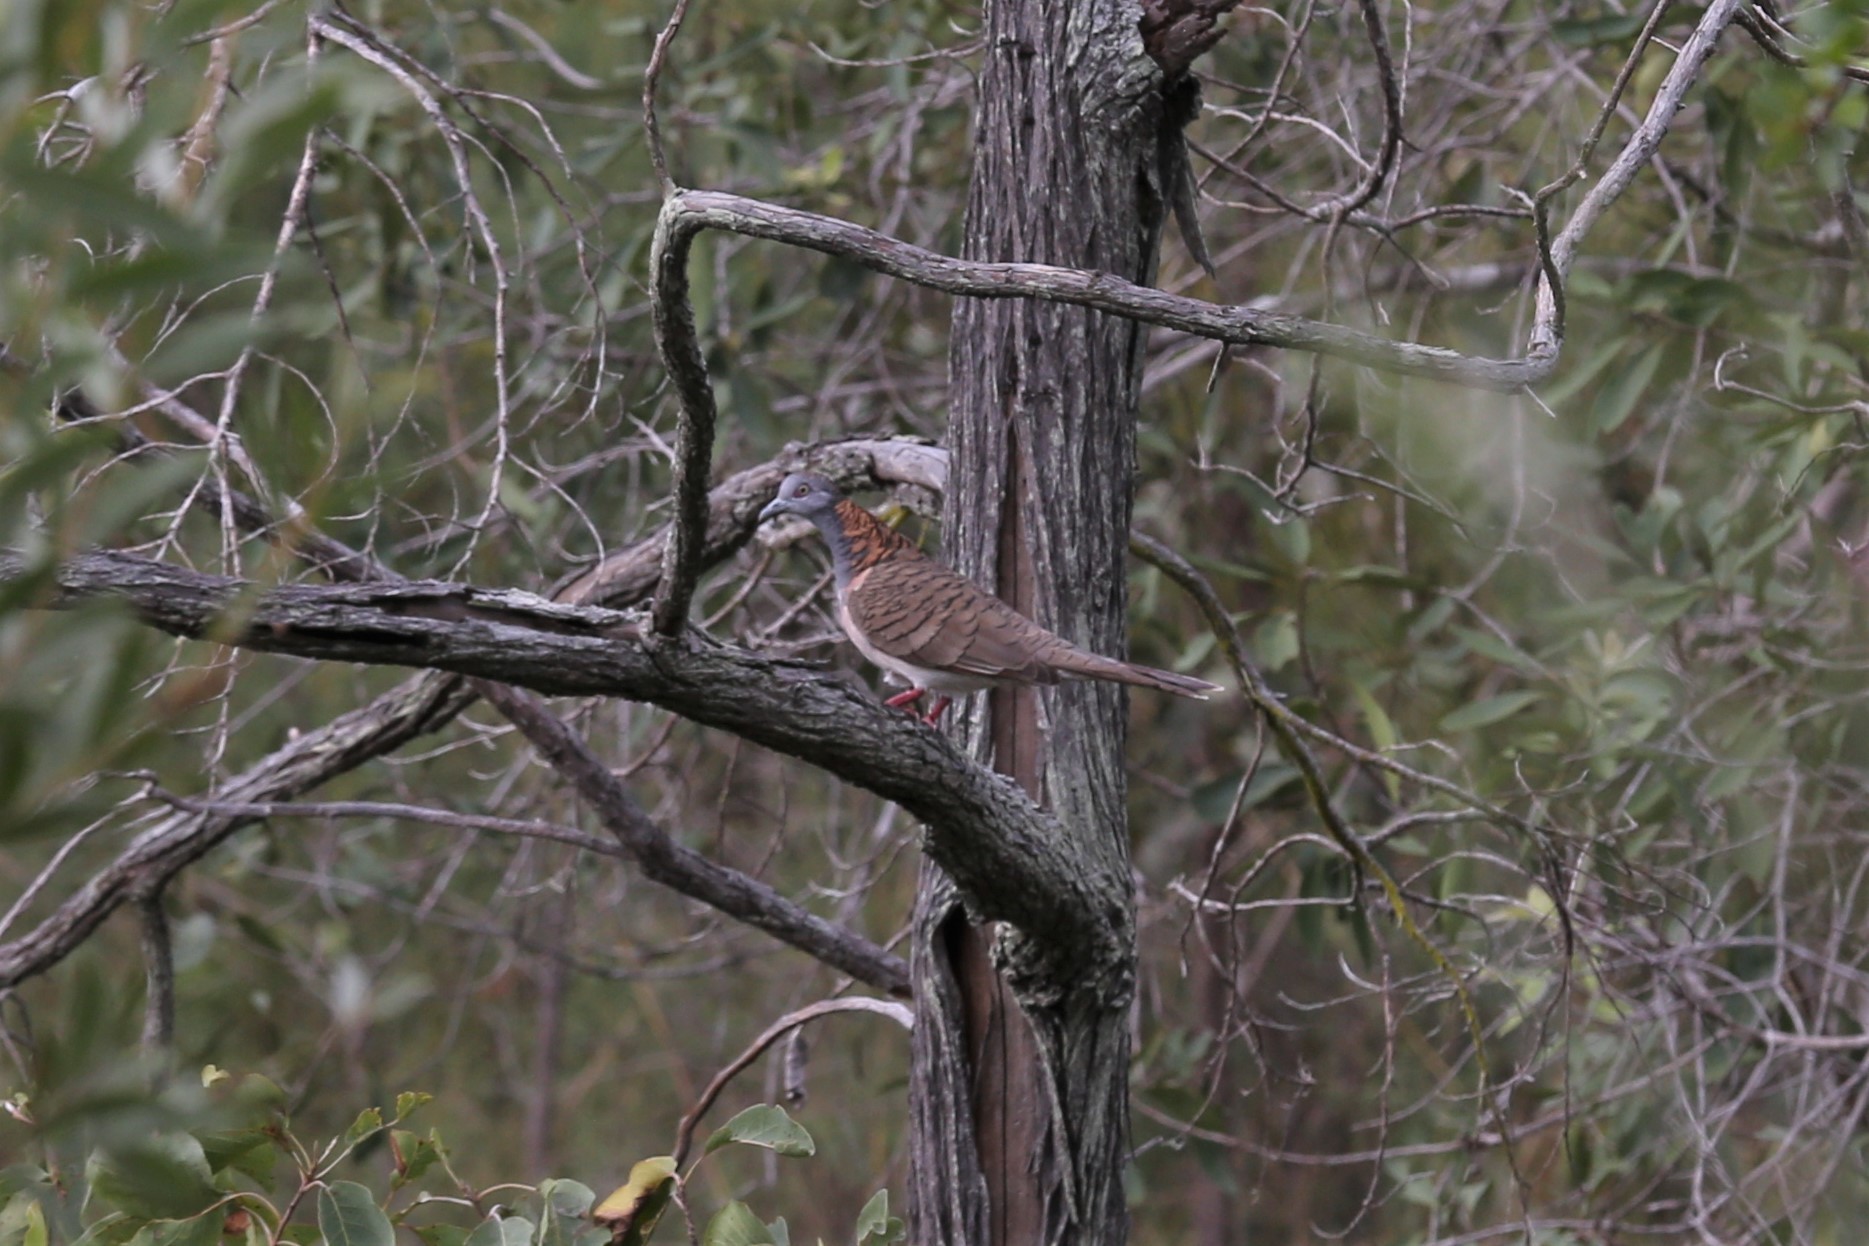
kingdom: Animalia
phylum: Chordata
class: Aves
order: Columbiformes
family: Columbidae
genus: Geopelia
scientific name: Geopelia humeralis
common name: Bar-shouldered dove
